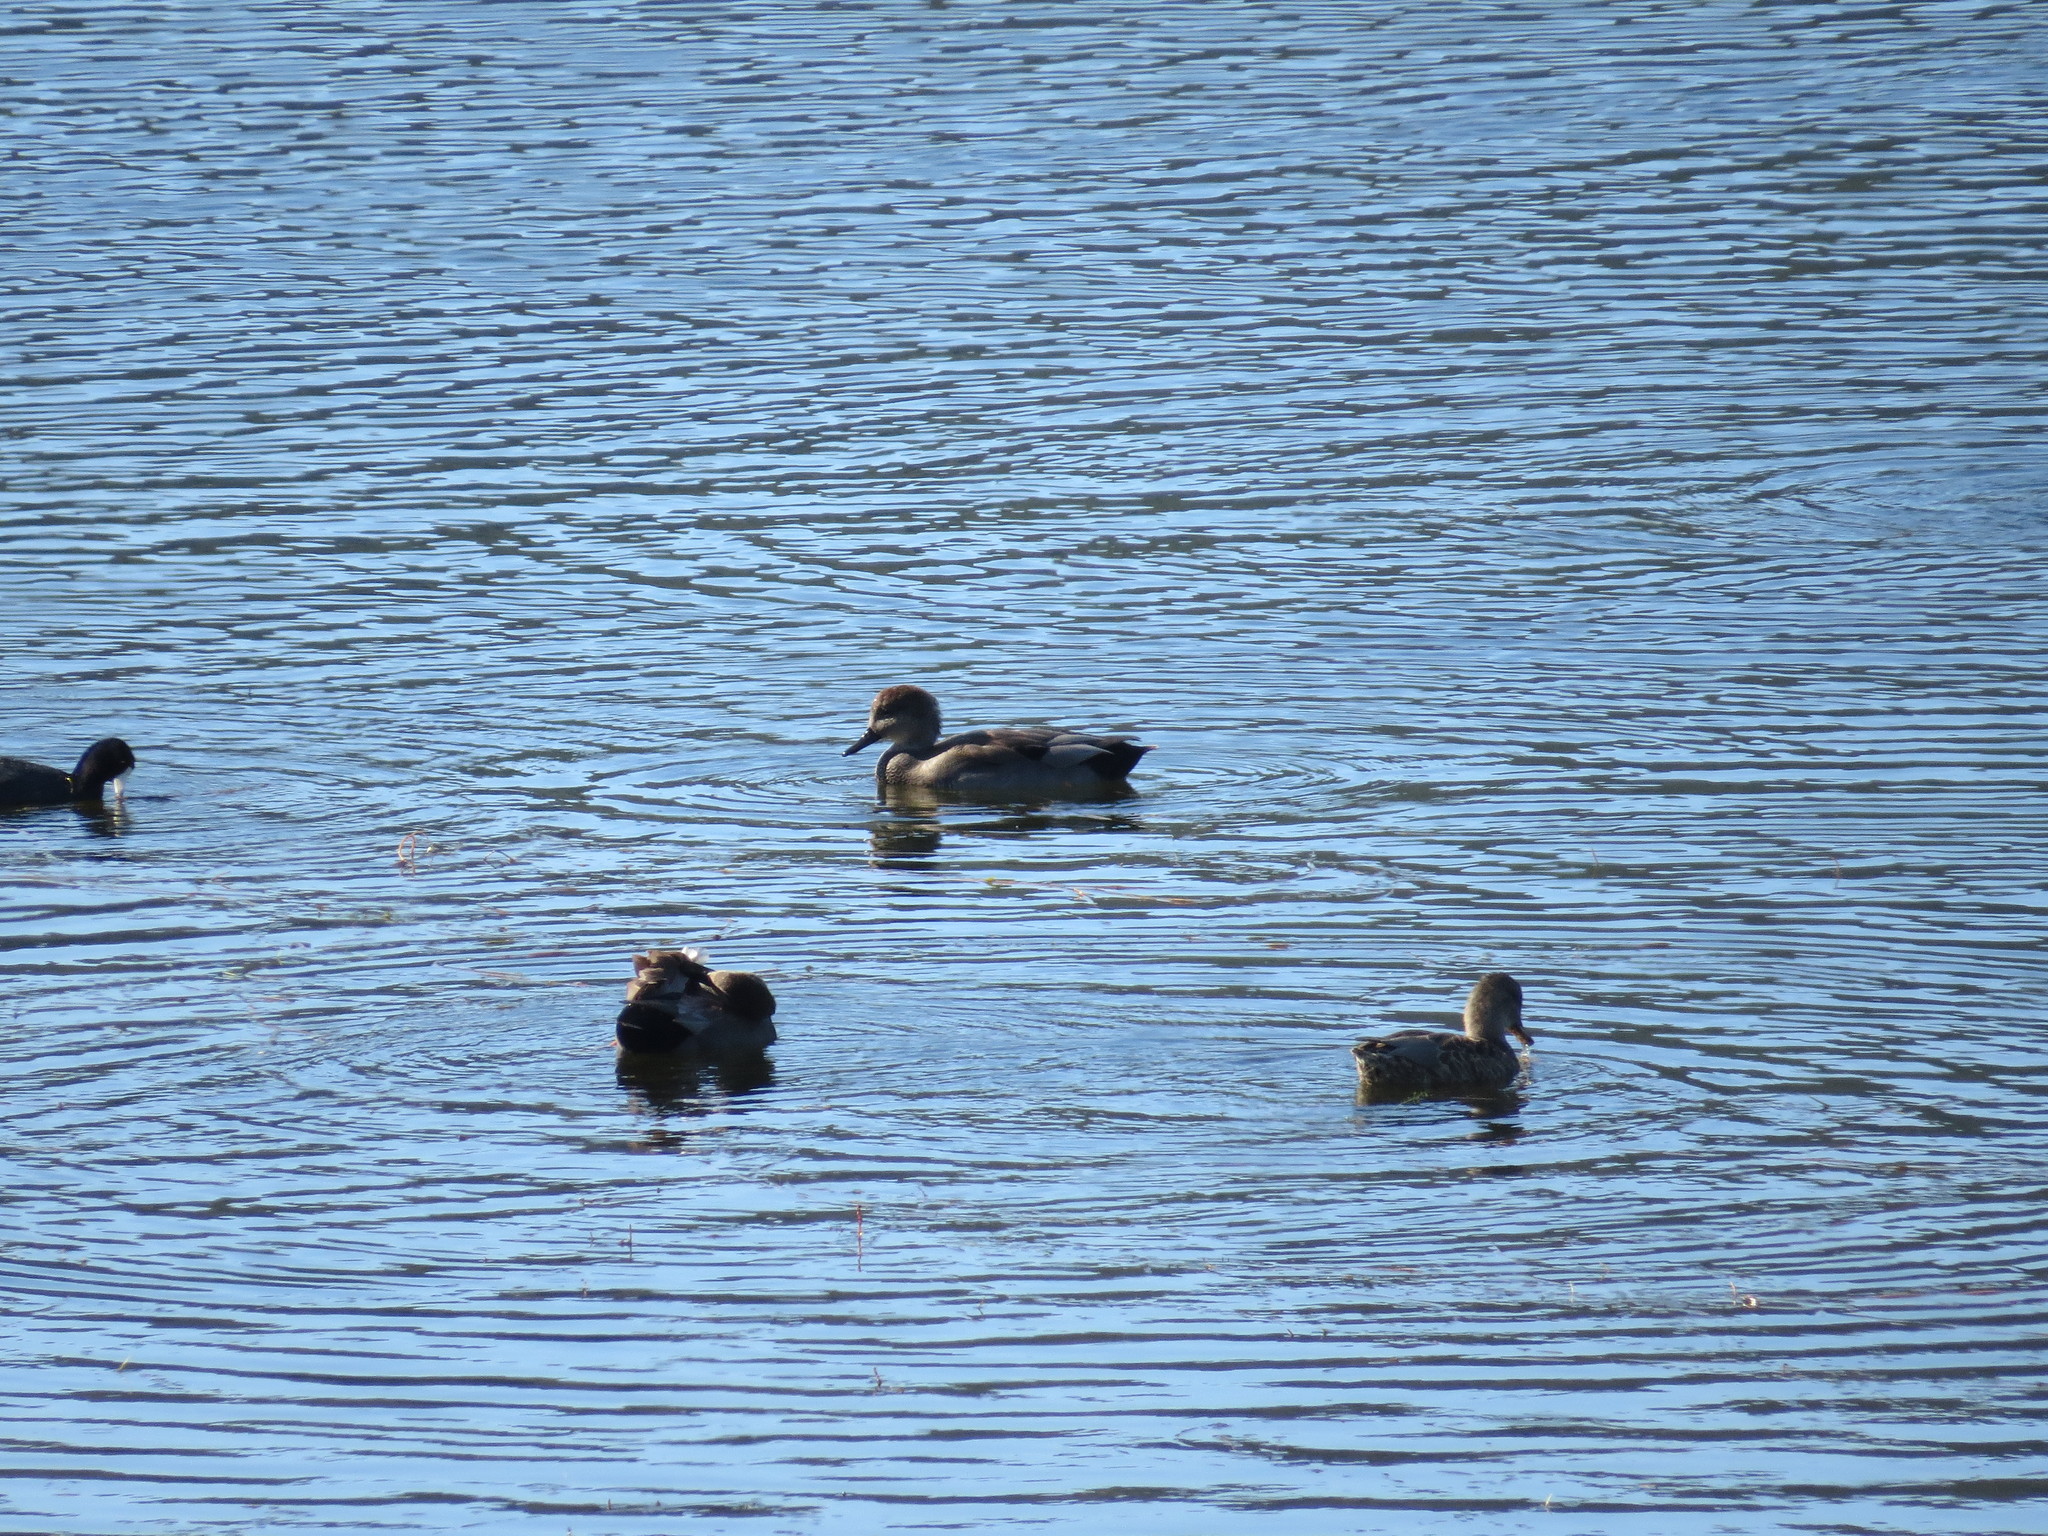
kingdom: Animalia
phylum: Chordata
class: Aves
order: Anseriformes
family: Anatidae
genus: Mareca
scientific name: Mareca strepera
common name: Gadwall
